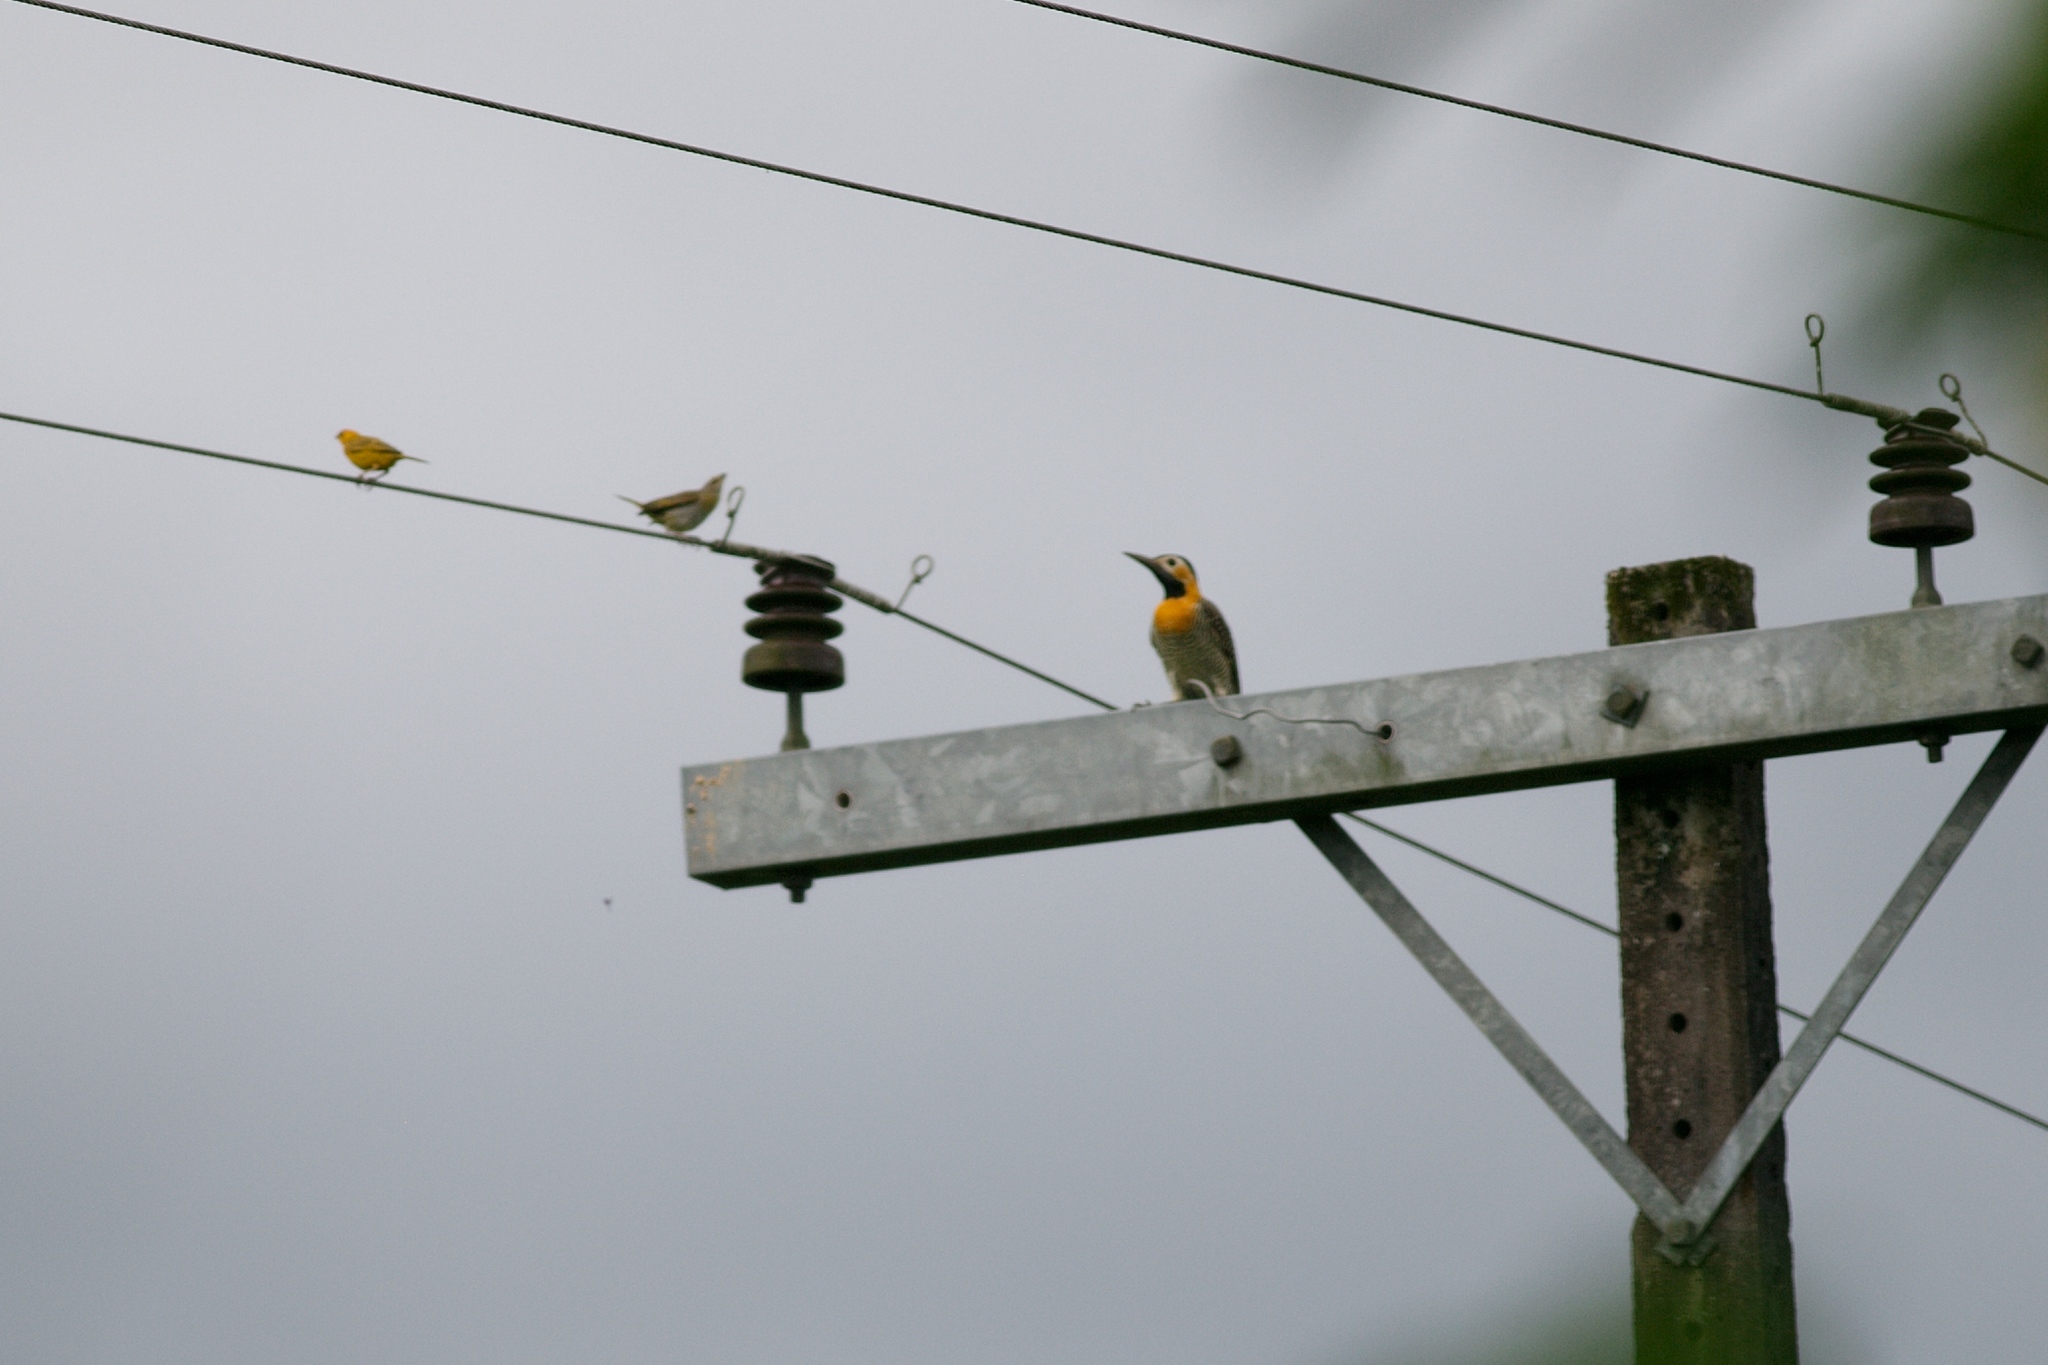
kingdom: Animalia
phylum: Chordata
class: Aves
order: Piciformes
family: Picidae
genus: Colaptes
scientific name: Colaptes campestris
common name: Campo flicker
